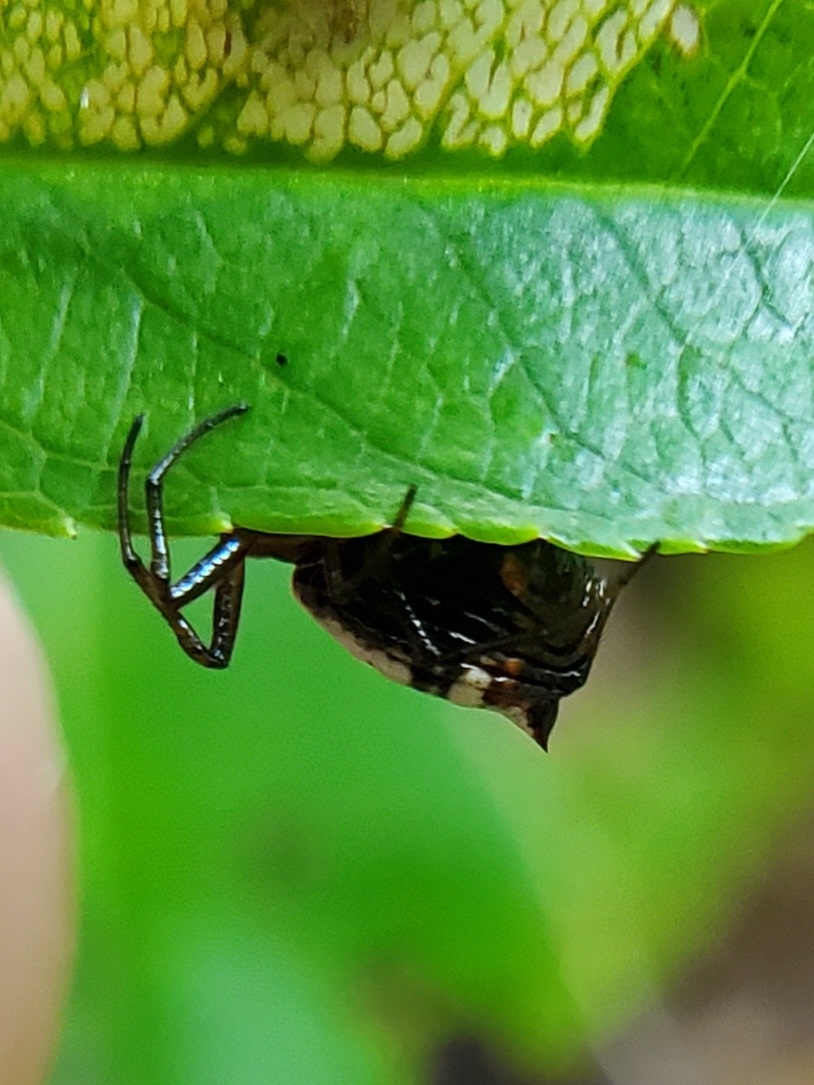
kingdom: Animalia
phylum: Arthropoda
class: Arachnida
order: Araneae
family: Araneidae
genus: Micrathena
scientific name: Micrathena mitrata
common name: Orb weavers
